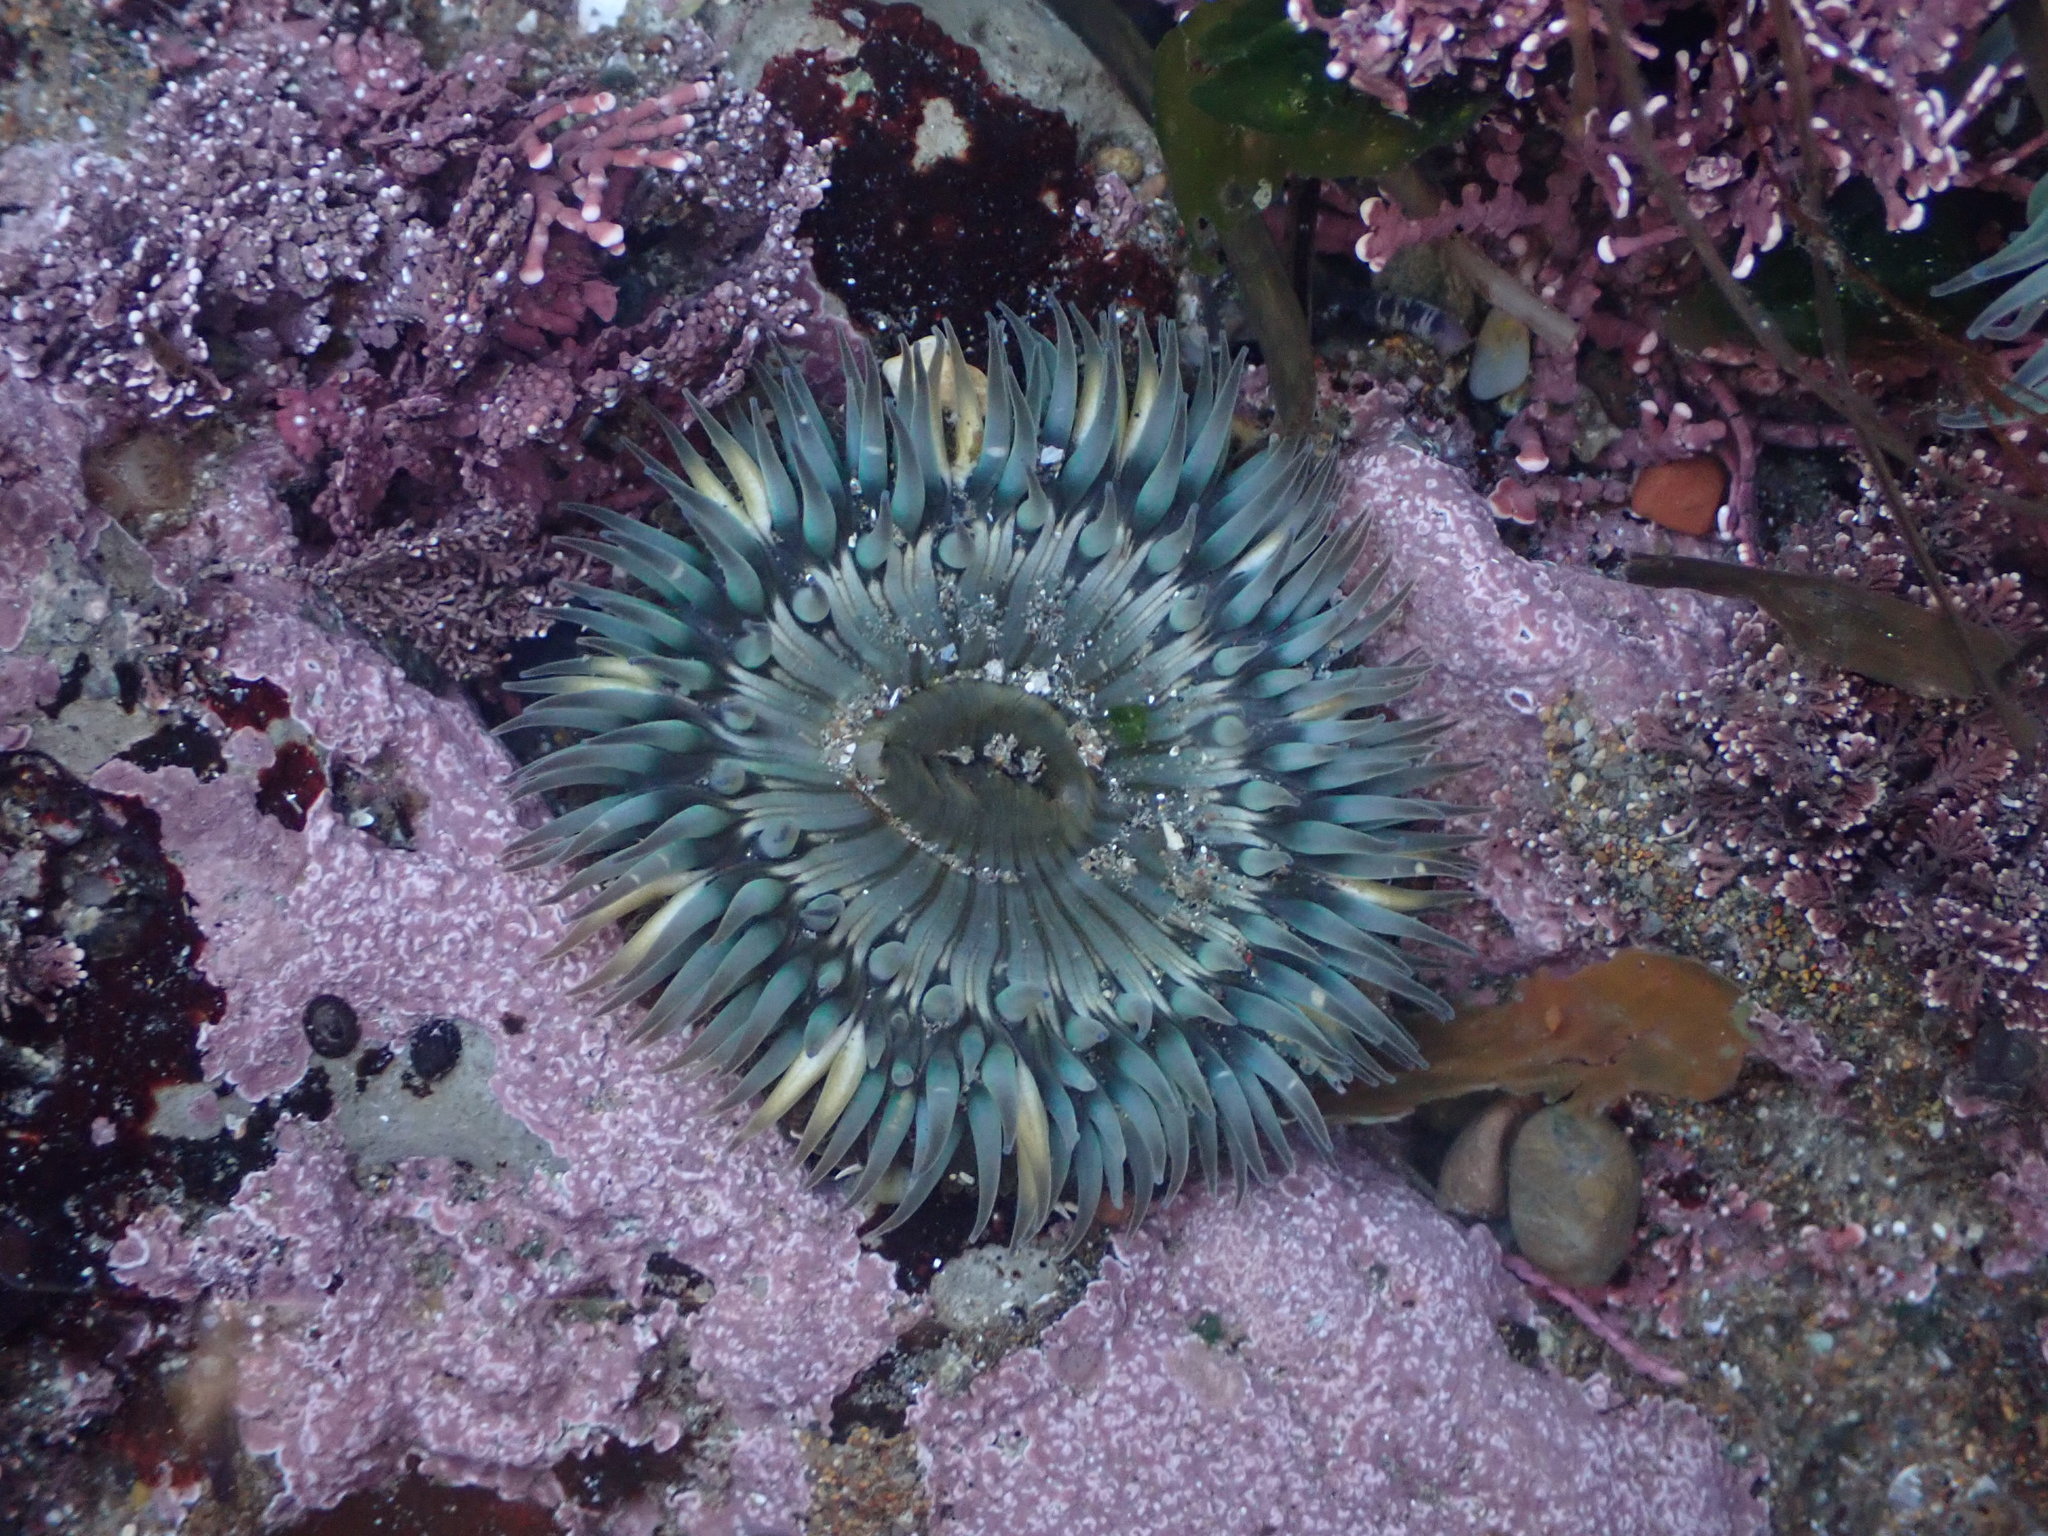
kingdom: Animalia
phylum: Cnidaria
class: Anthozoa
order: Actiniaria
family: Actiniidae
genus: Anthopleura
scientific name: Anthopleura sola
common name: Sun anemone
